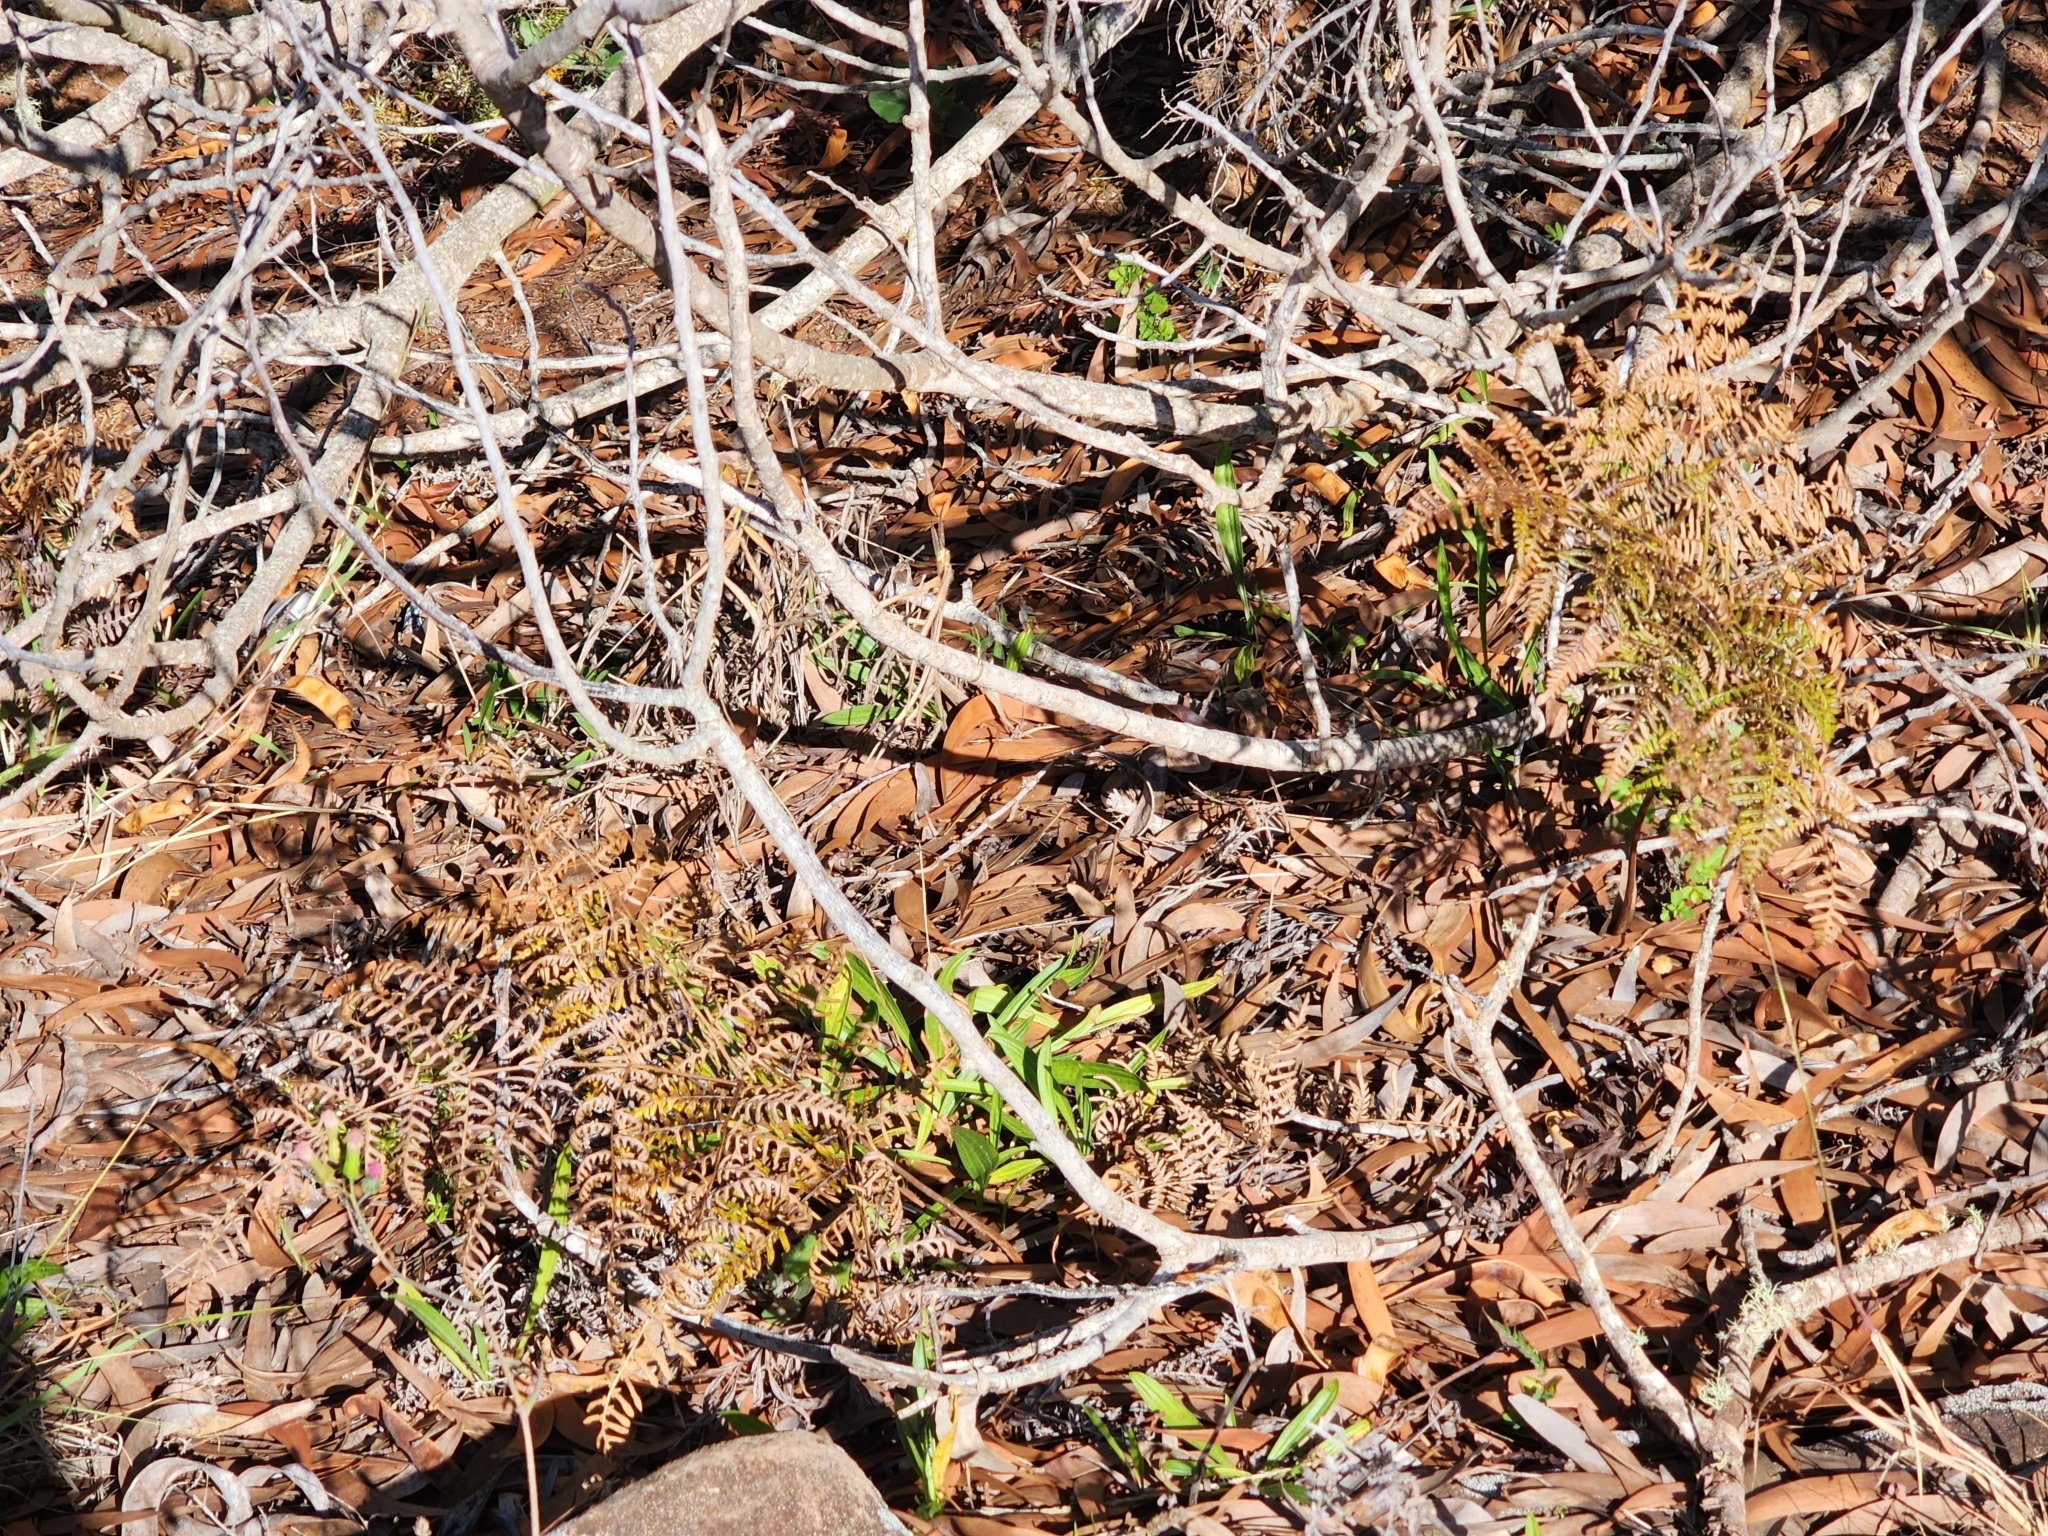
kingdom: Plantae
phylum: Tracheophyta
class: Polypodiopsida
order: Polypodiales
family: Dennstaedtiaceae
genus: Pteridium
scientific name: Pteridium aquilinum
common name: Bracken
